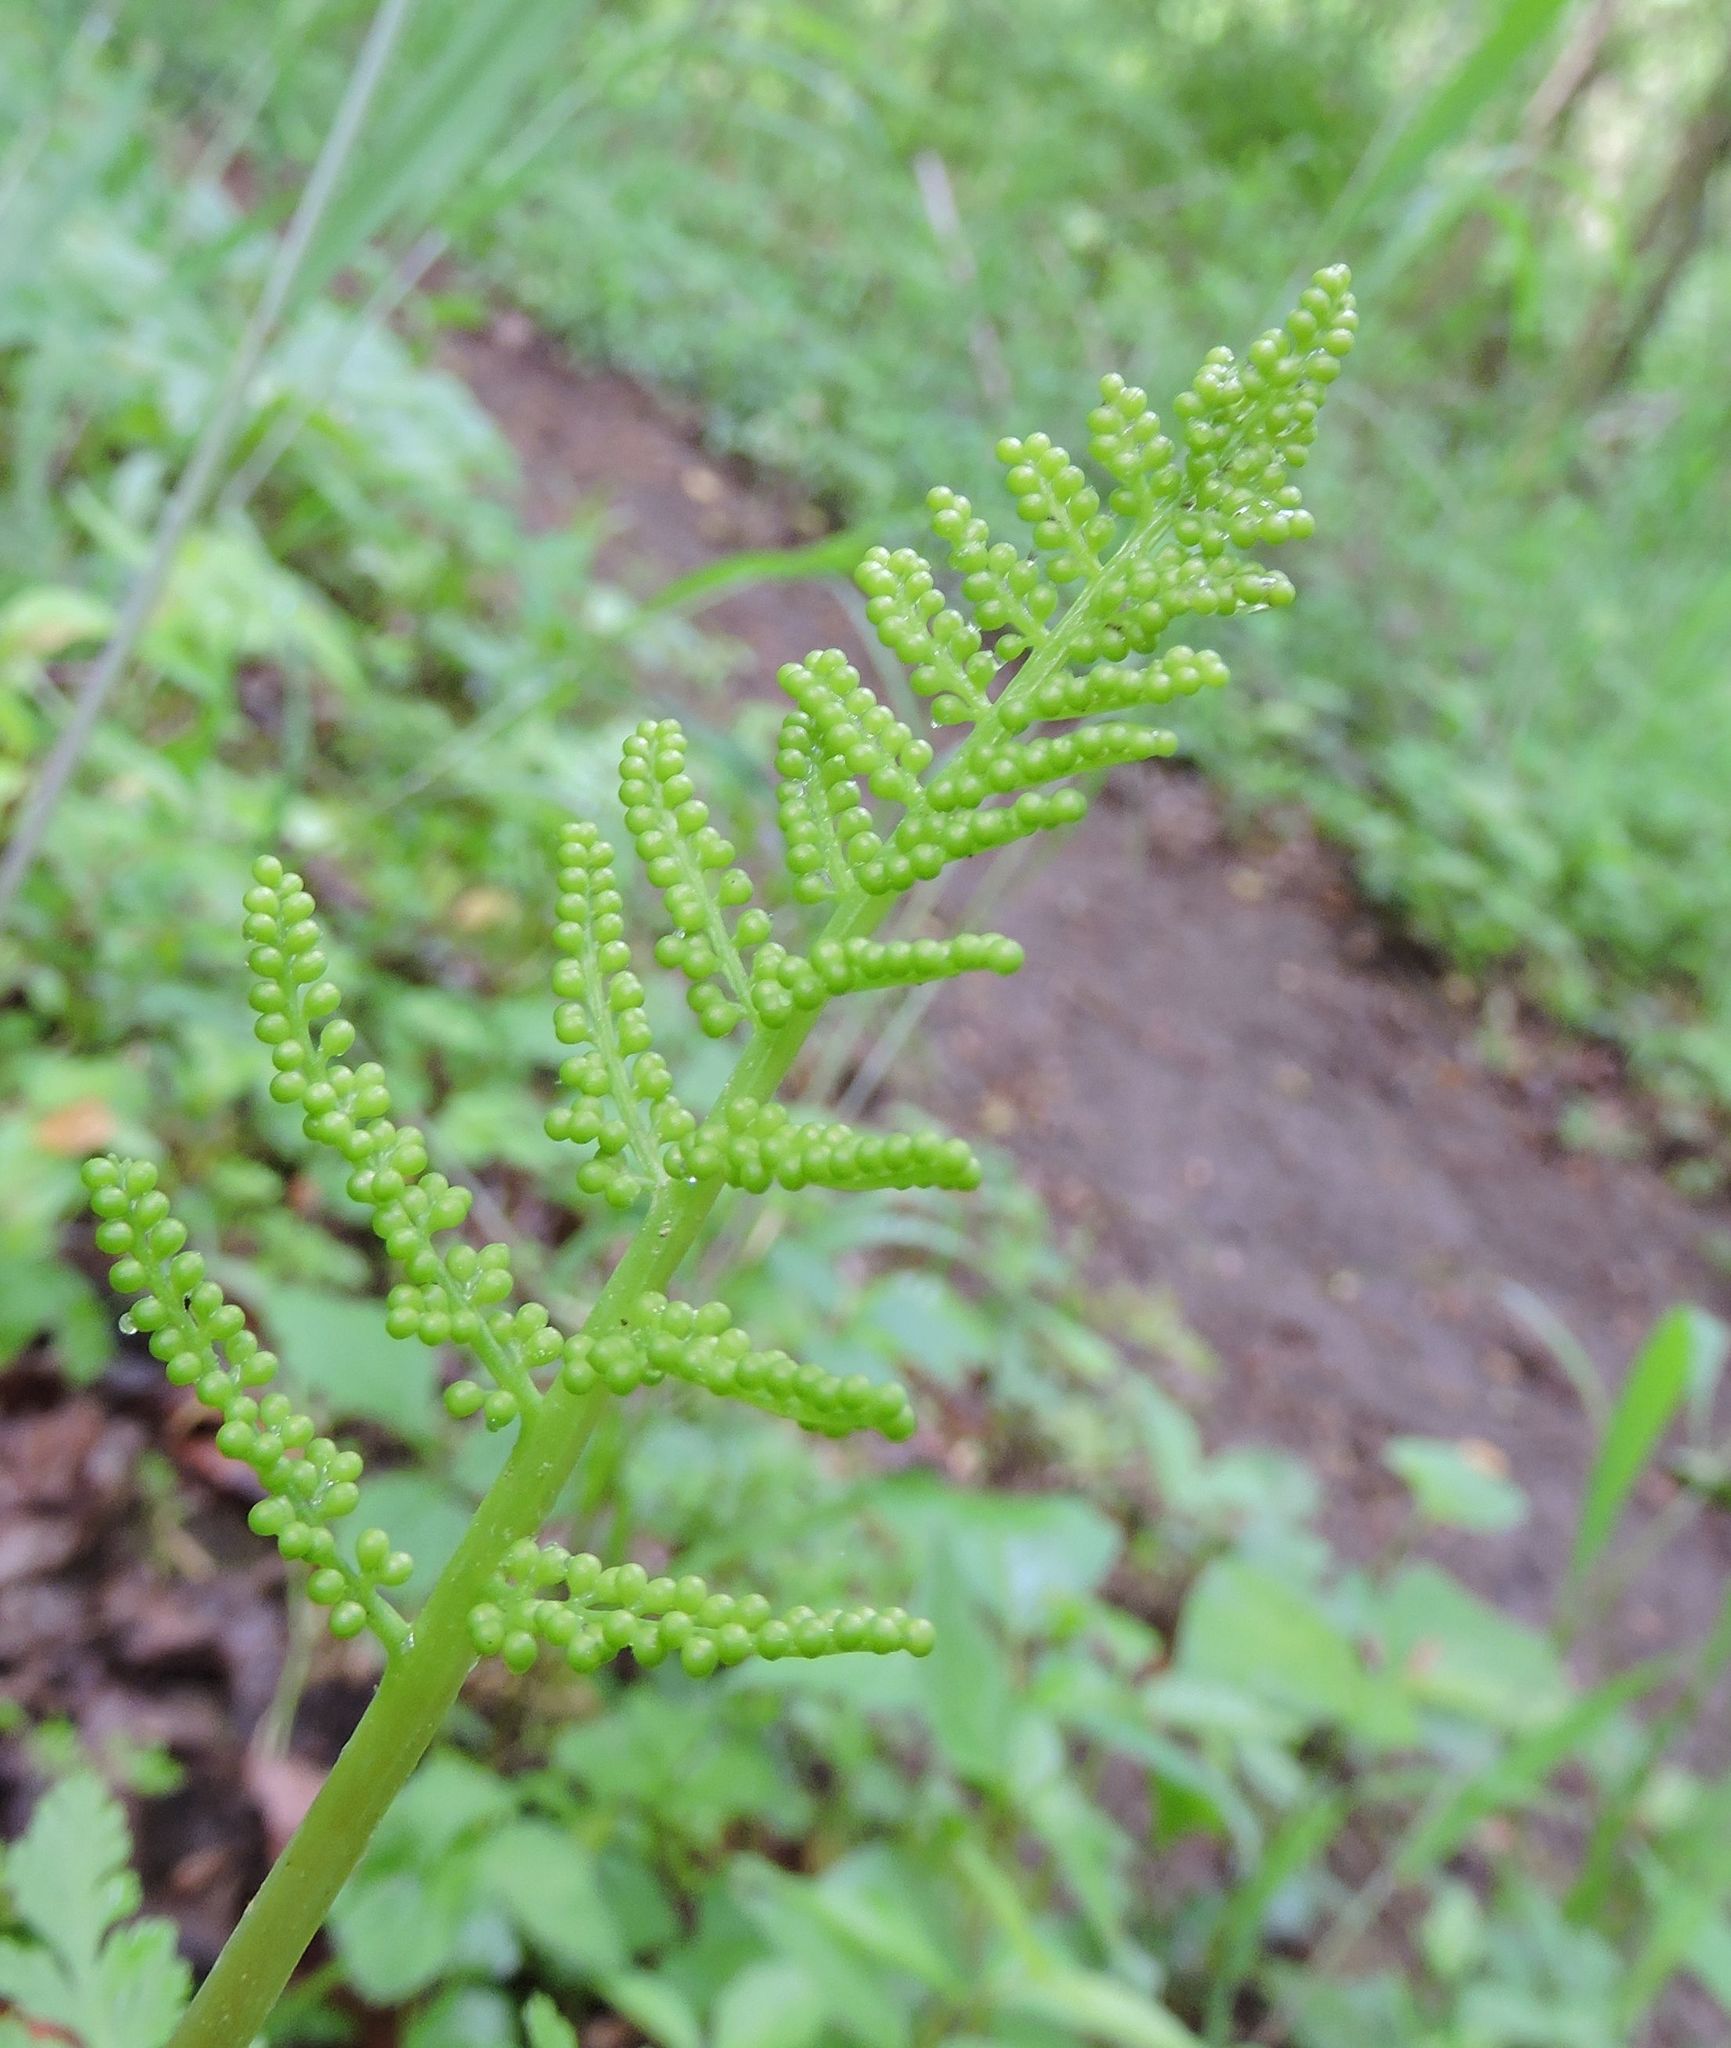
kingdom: Plantae
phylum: Tracheophyta
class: Polypodiopsida
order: Ophioglossales
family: Ophioglossaceae
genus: Botrypus
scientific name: Botrypus virginianus
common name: Common grapefern
